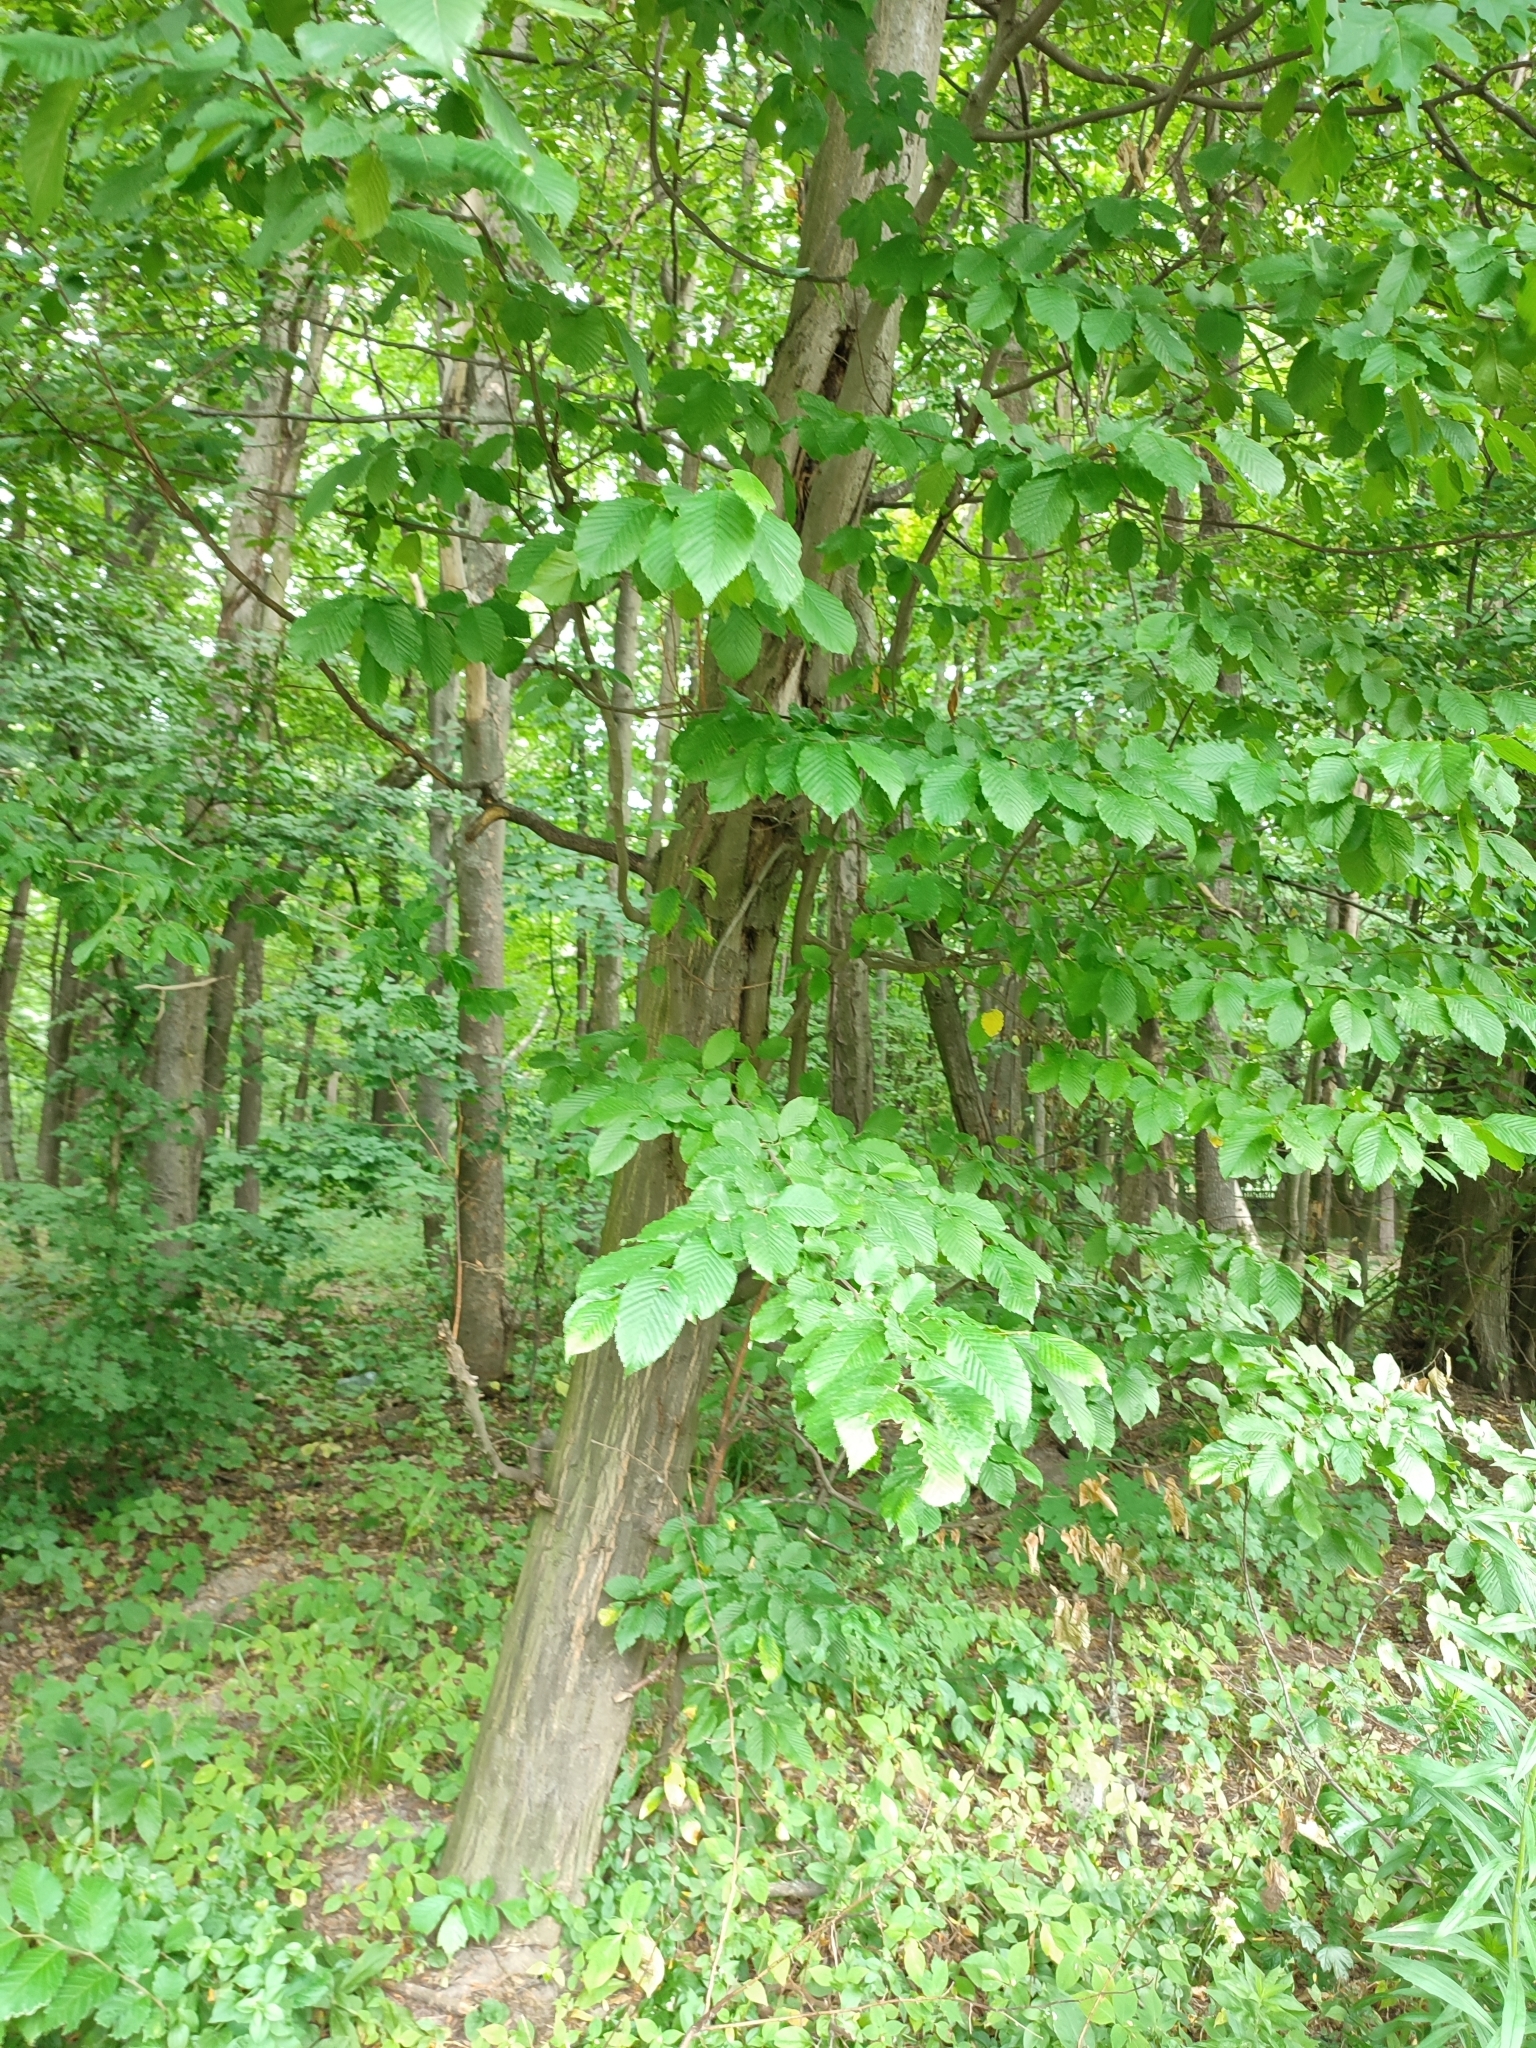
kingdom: Plantae
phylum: Tracheophyta
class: Magnoliopsida
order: Fagales
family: Betulaceae
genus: Carpinus
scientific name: Carpinus betulus
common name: Hornbeam
